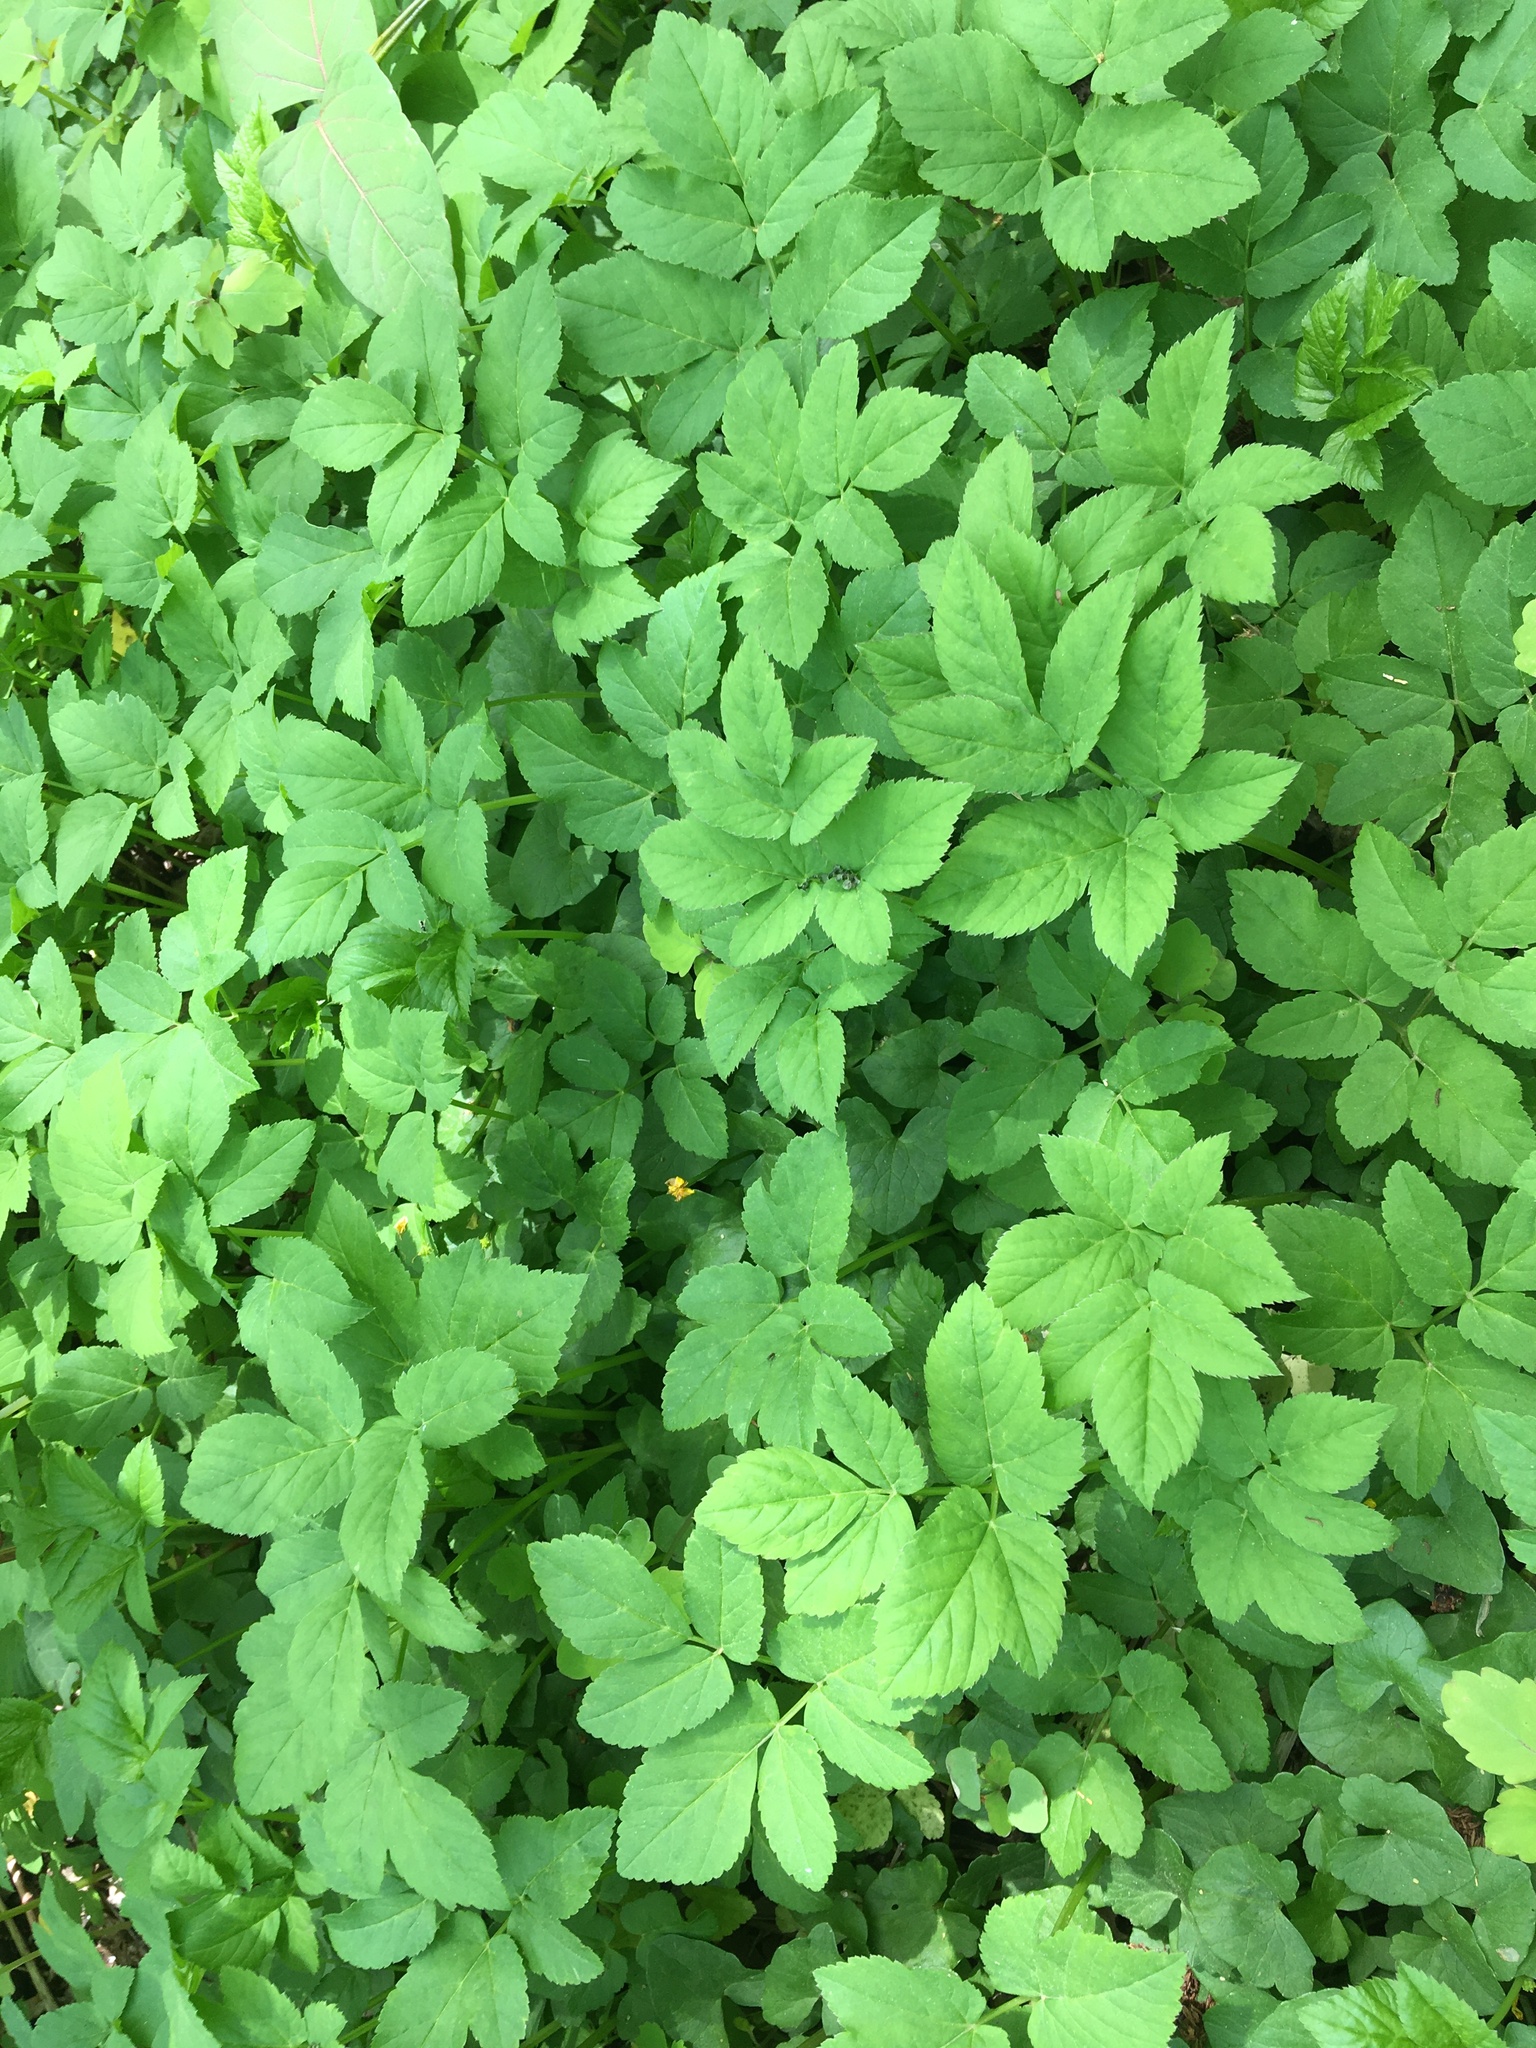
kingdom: Plantae
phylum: Tracheophyta
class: Magnoliopsida
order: Apiales
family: Apiaceae
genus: Aegopodium
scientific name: Aegopodium podagraria
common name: Ground-elder
